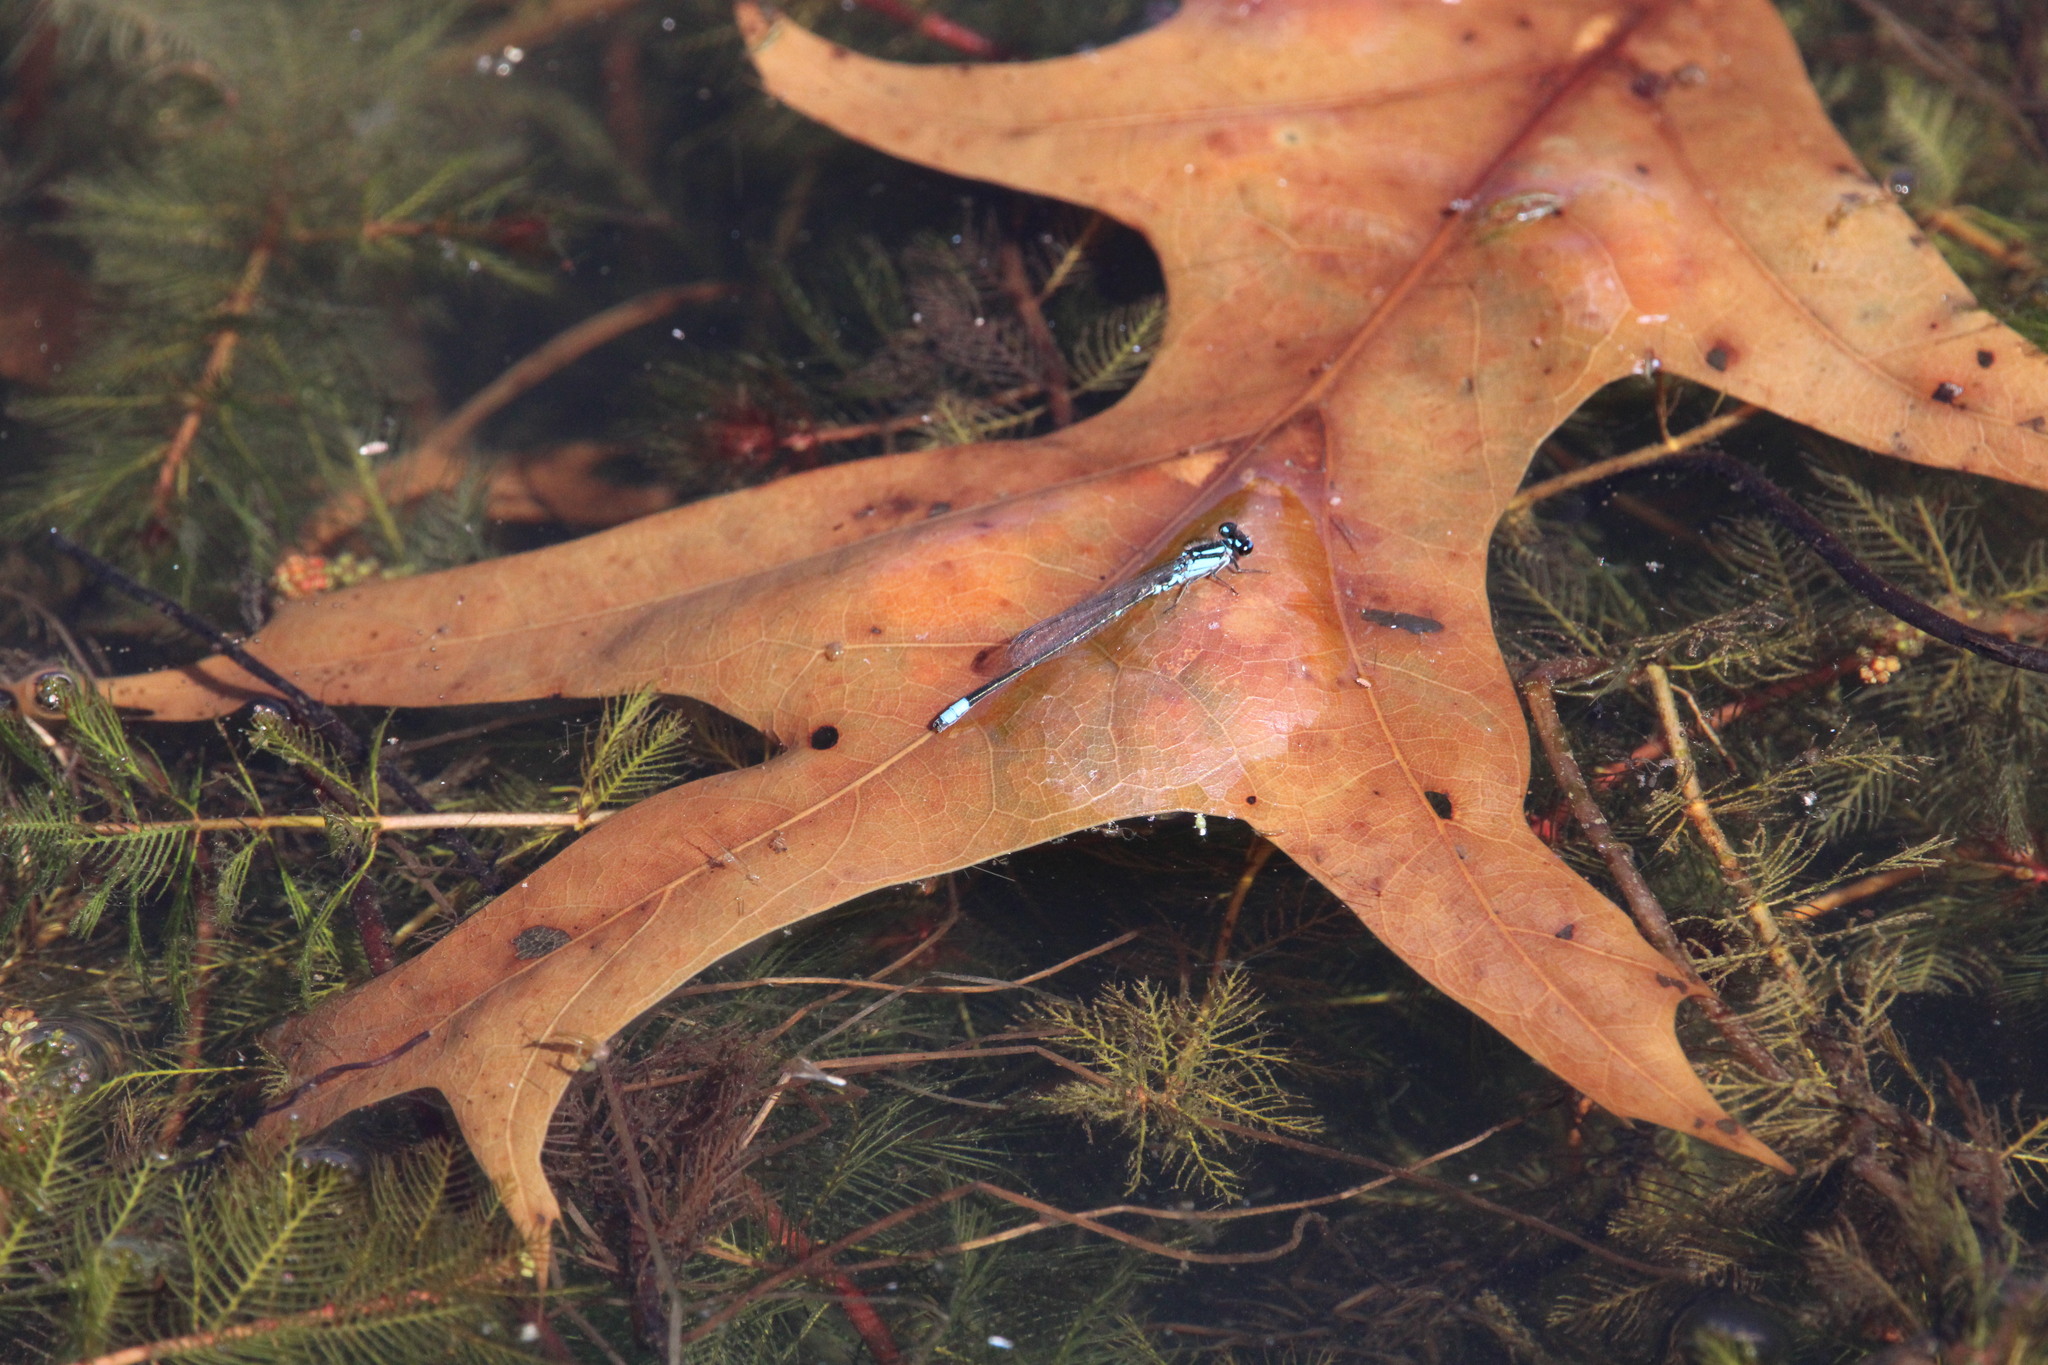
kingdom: Animalia
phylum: Arthropoda
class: Insecta
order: Odonata
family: Coenagrionidae
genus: Enallagma
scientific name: Enallagma geminatum
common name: Skimming bluet
